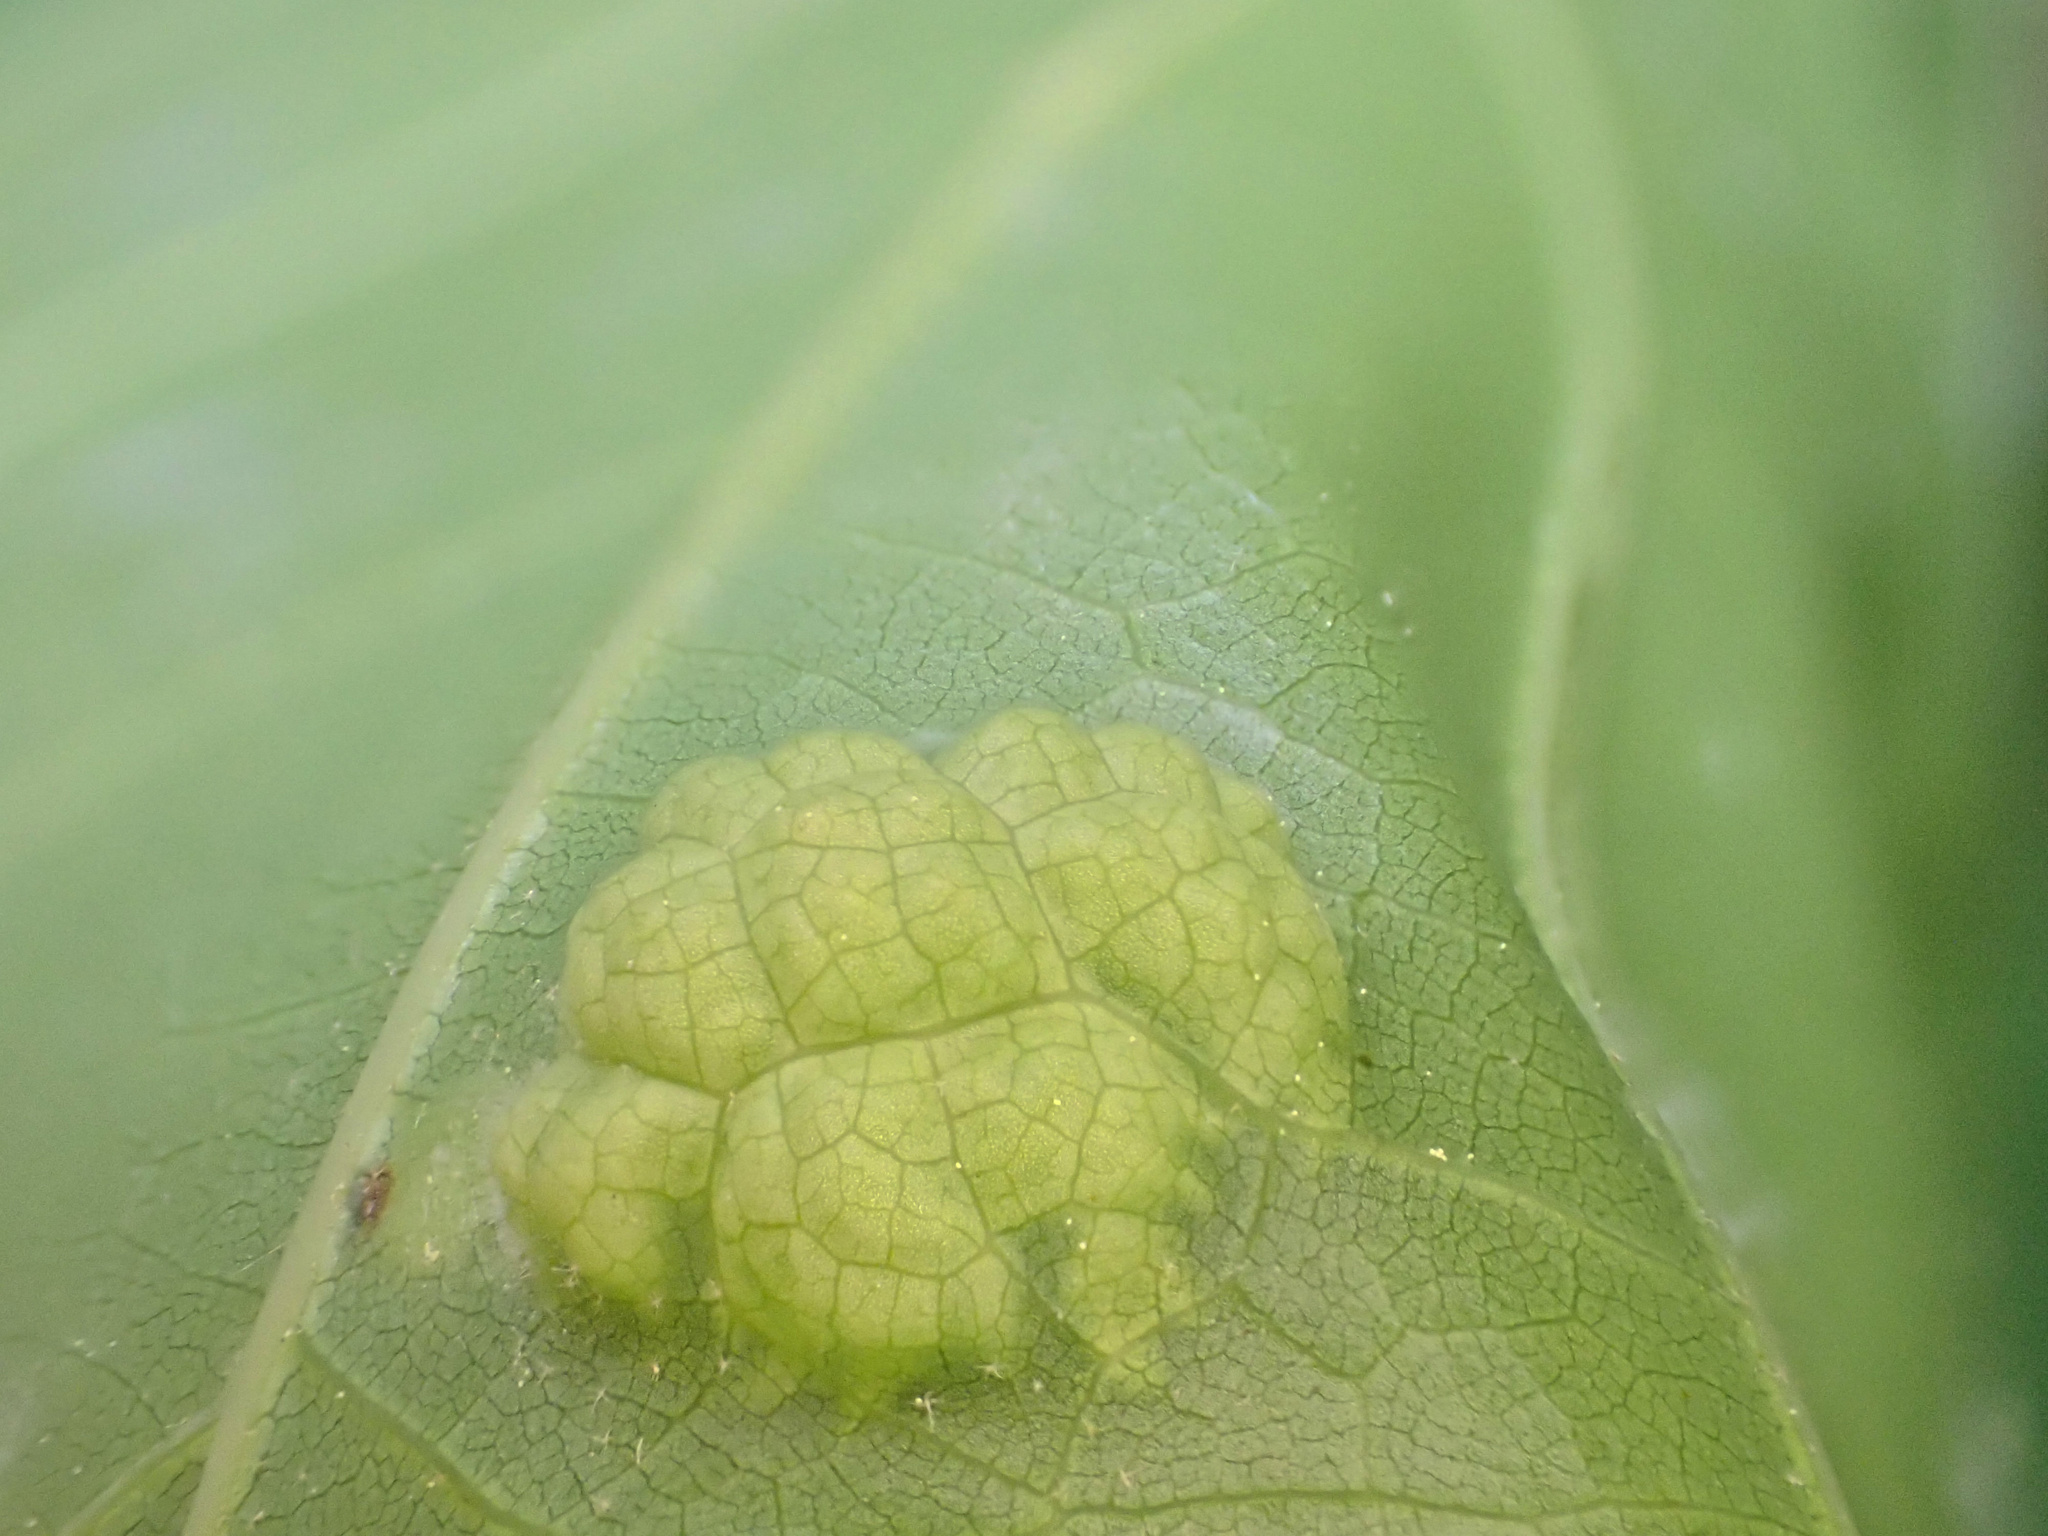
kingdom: Fungi
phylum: Ascomycota
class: Taphrinomycetes
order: Taphrinales
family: Taphrinaceae
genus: Taphrina
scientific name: Taphrina caerulescens
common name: Oak leaf blister
